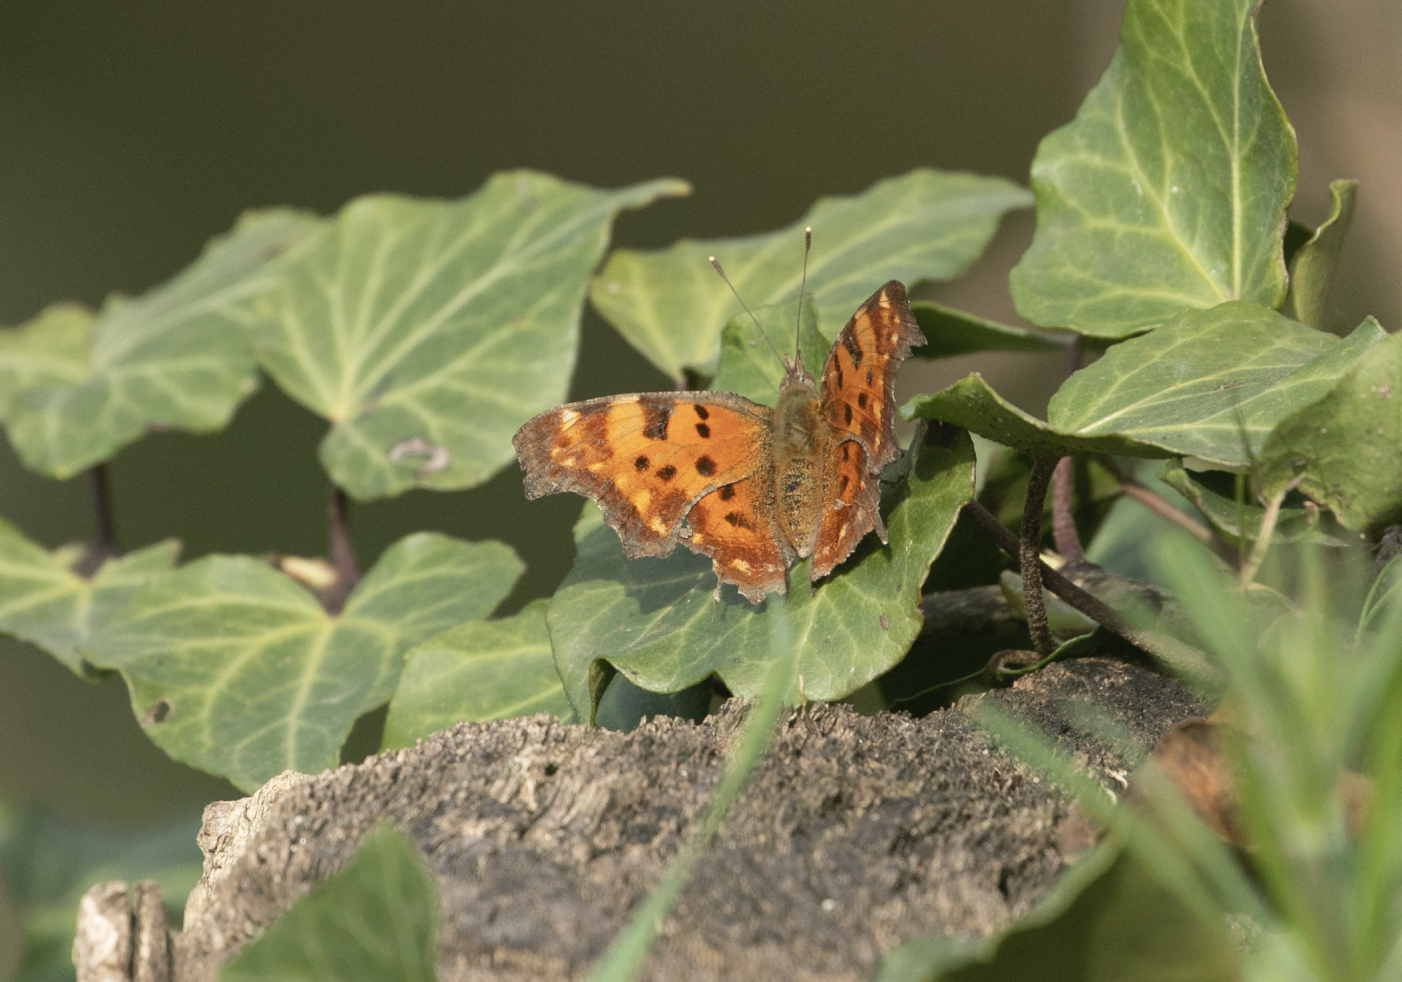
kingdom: Animalia
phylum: Arthropoda
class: Insecta
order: Lepidoptera
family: Nymphalidae
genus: Polygonia
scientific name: Polygonia c-album
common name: Comma
